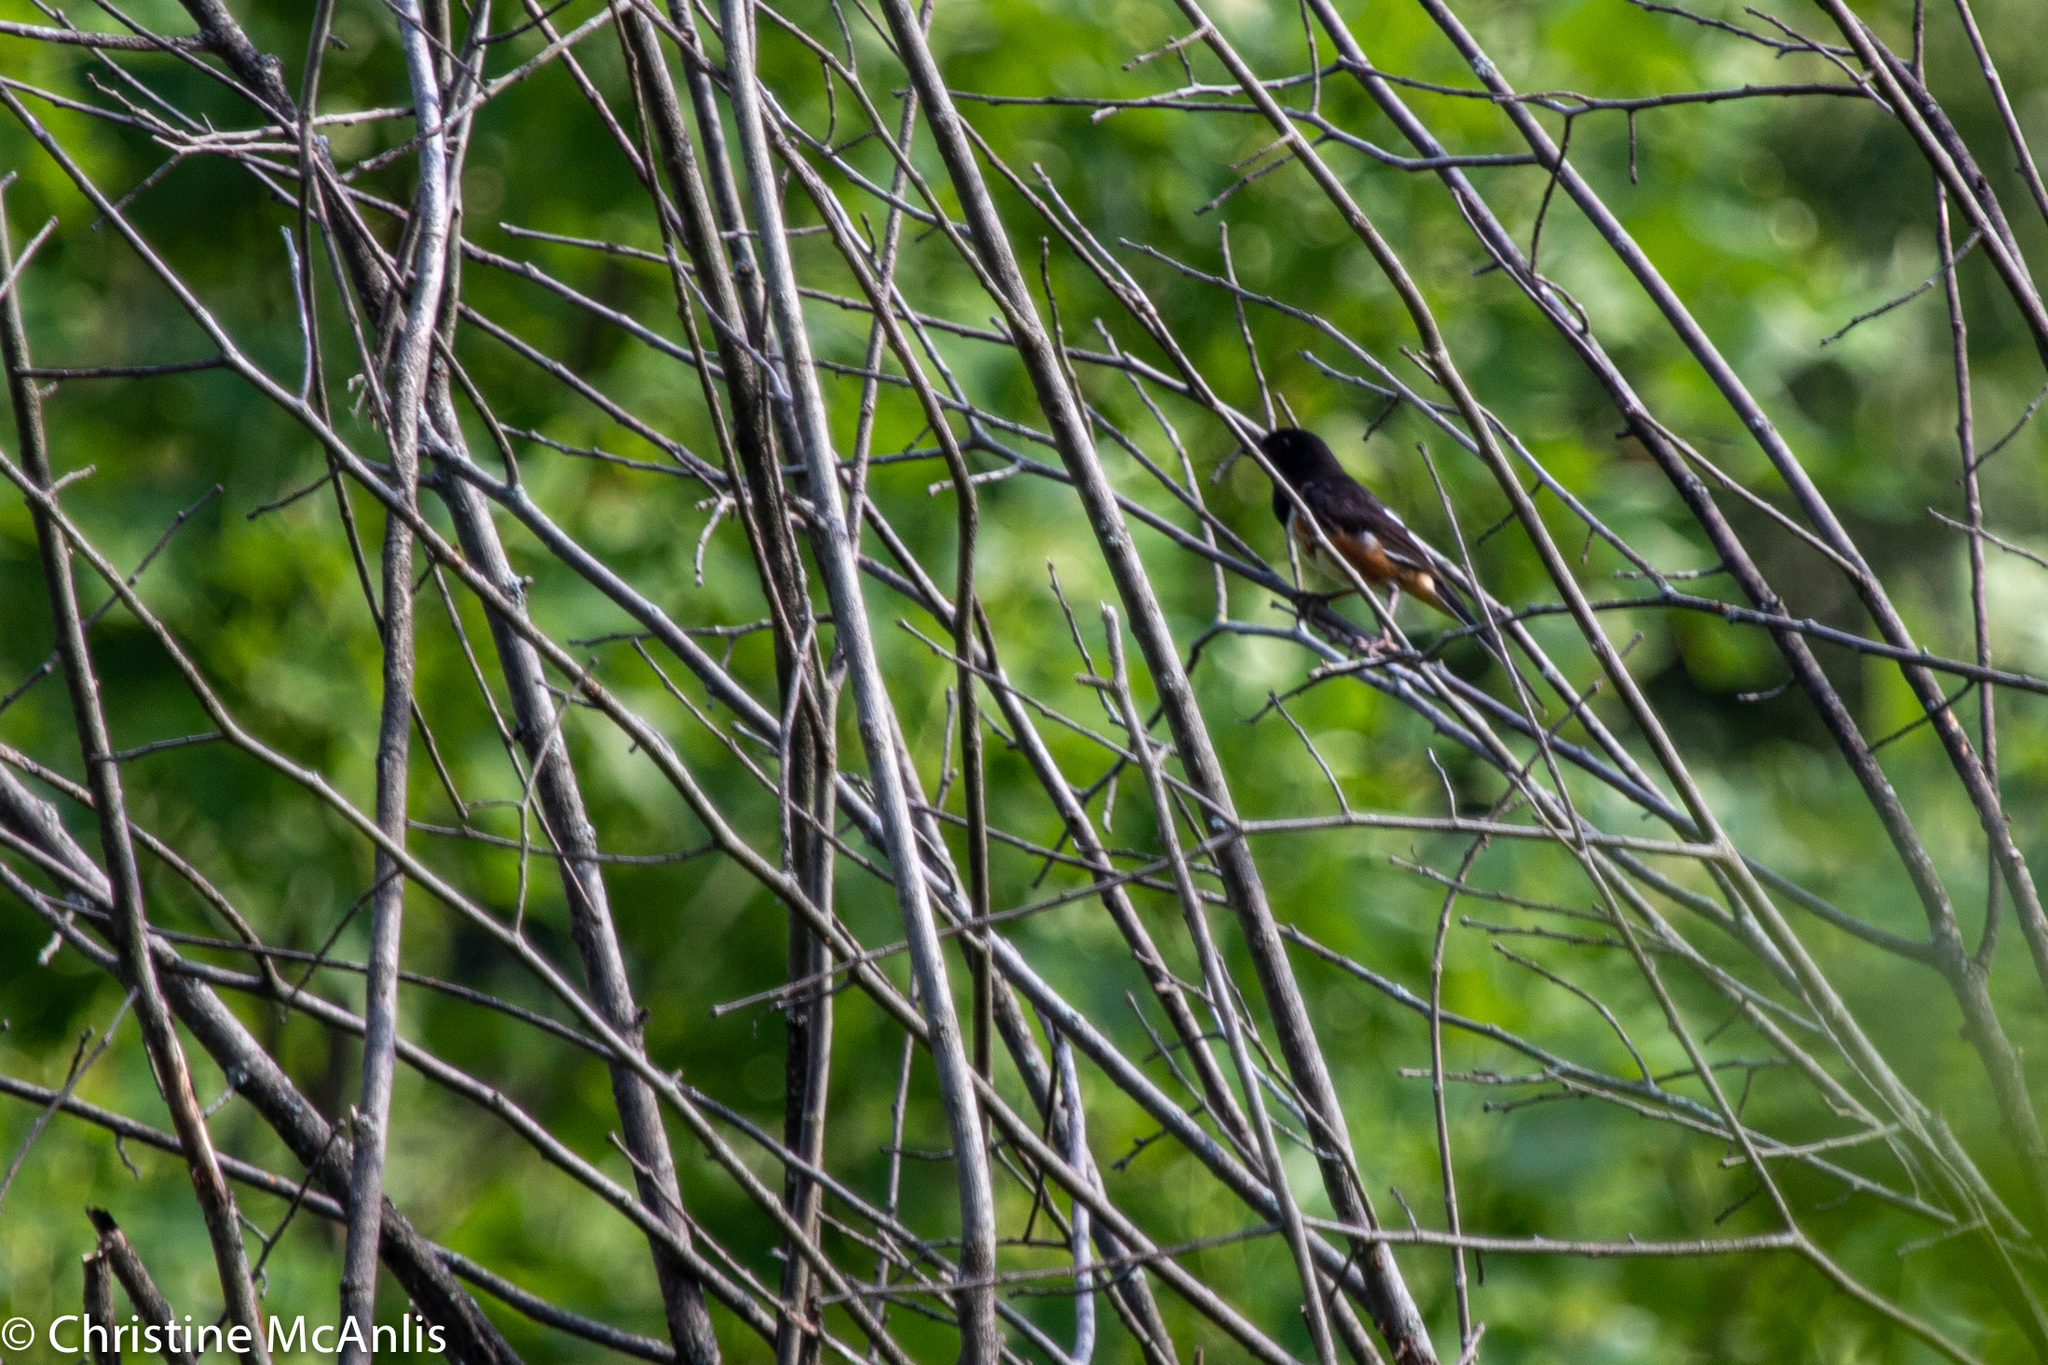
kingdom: Animalia
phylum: Chordata
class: Aves
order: Passeriformes
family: Passerellidae
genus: Pipilo
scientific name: Pipilo erythrophthalmus
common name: Eastern towhee
